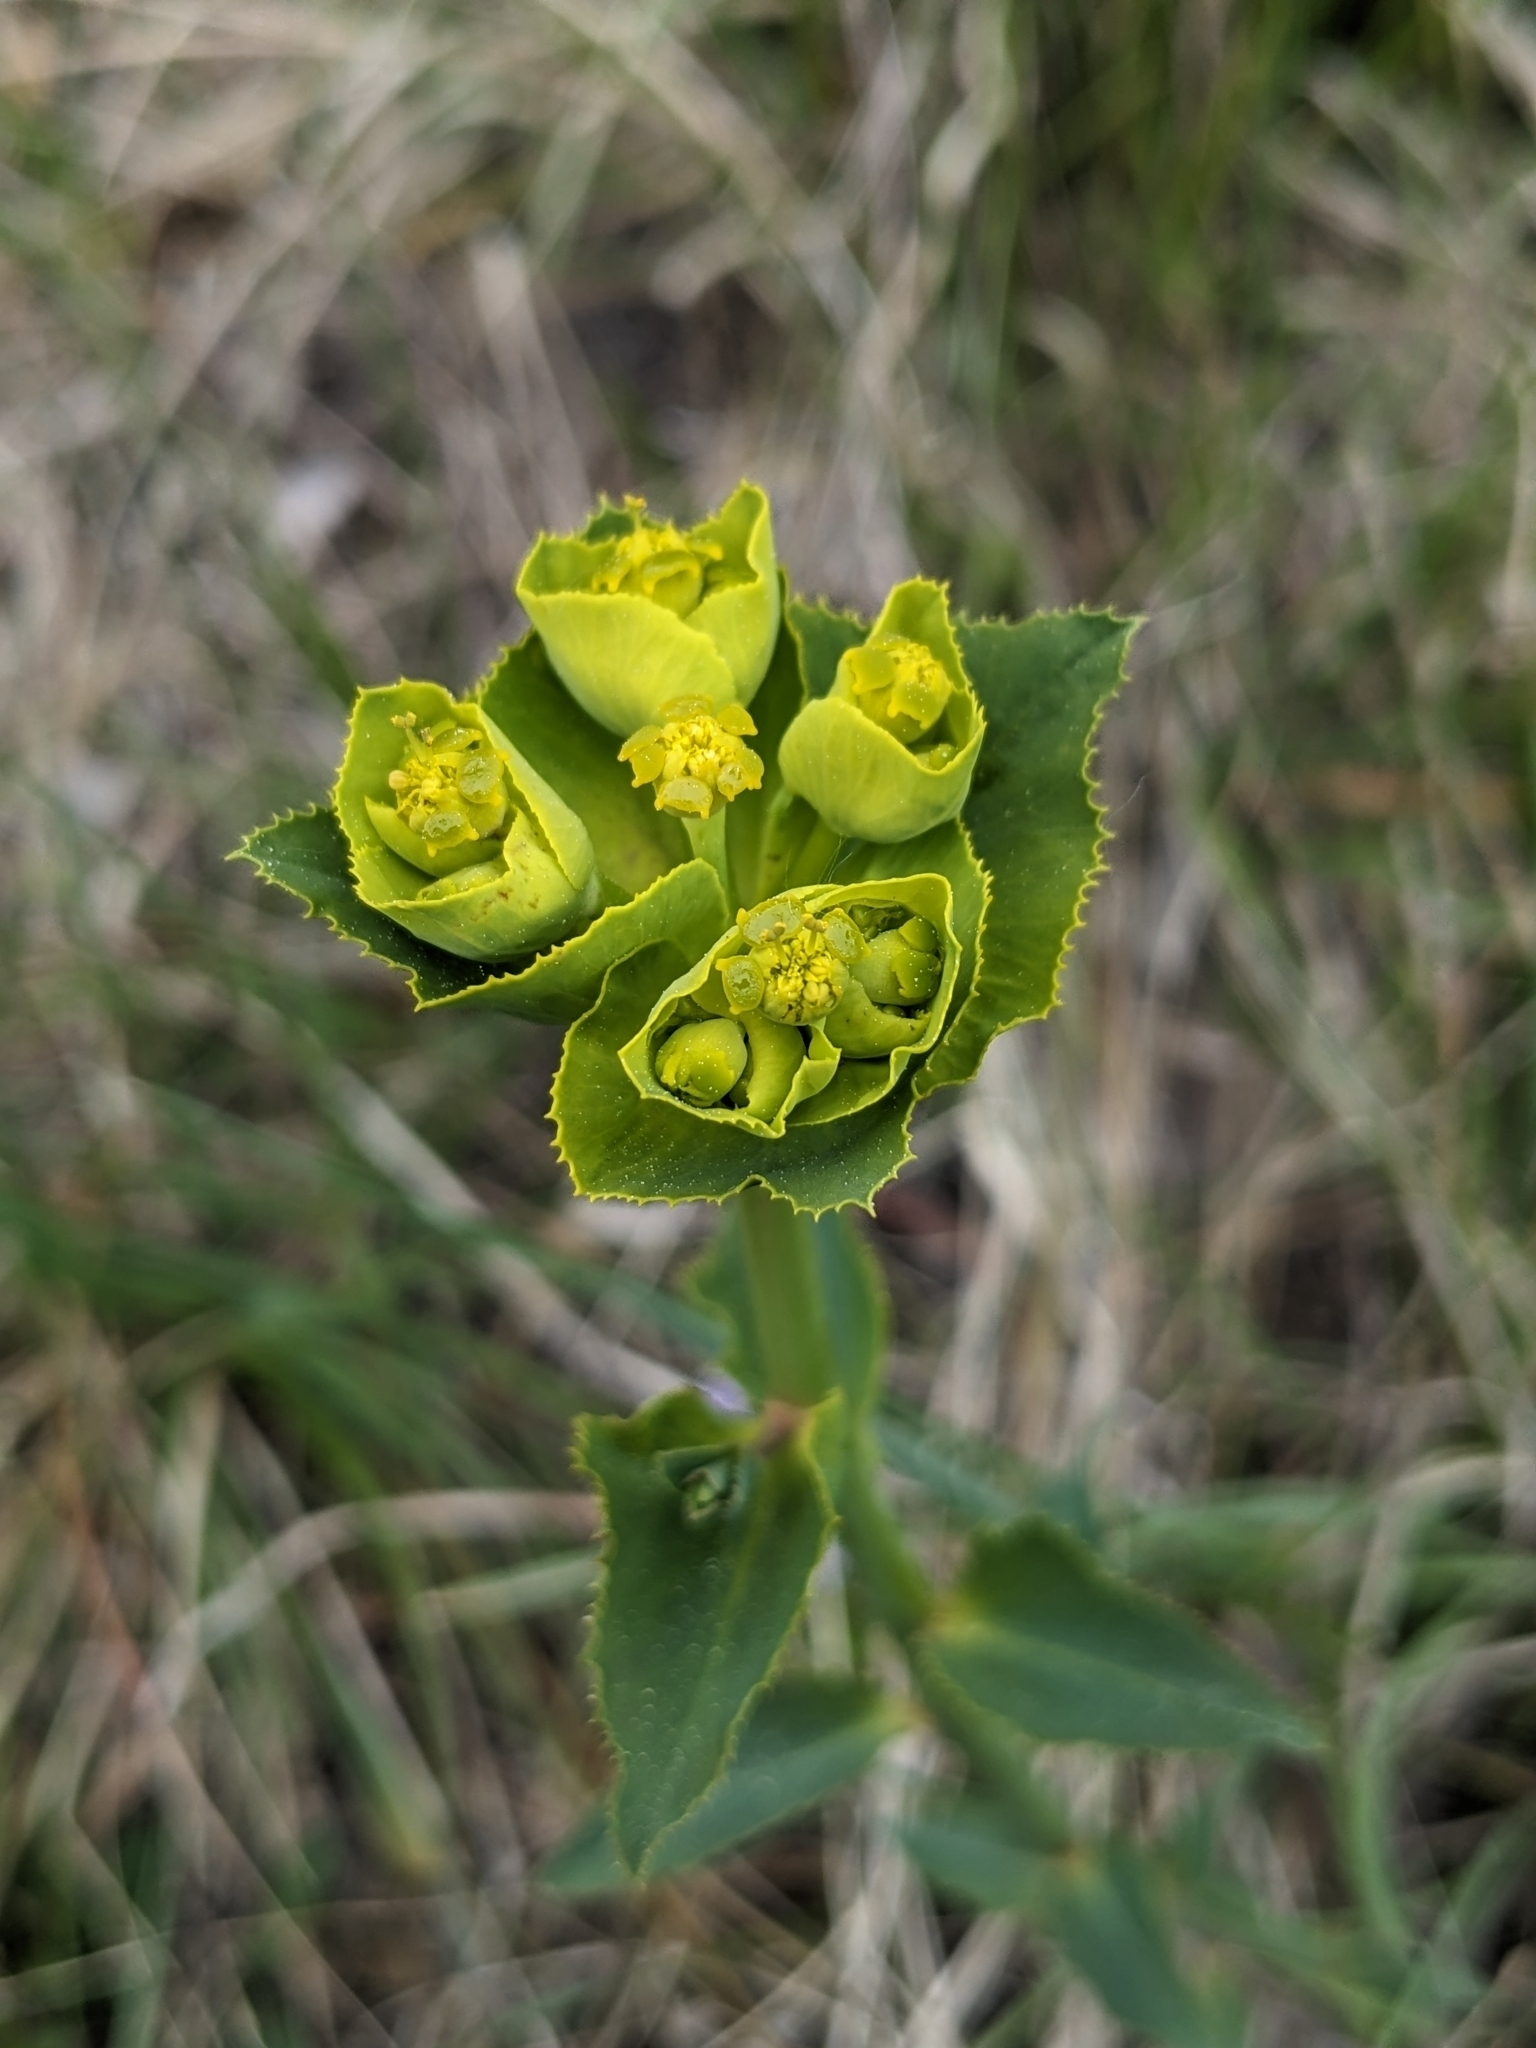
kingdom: Plantae
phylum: Tracheophyta
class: Magnoliopsida
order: Malpighiales
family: Euphorbiaceae
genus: Euphorbia
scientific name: Euphorbia serrata
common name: Serrate spurge
